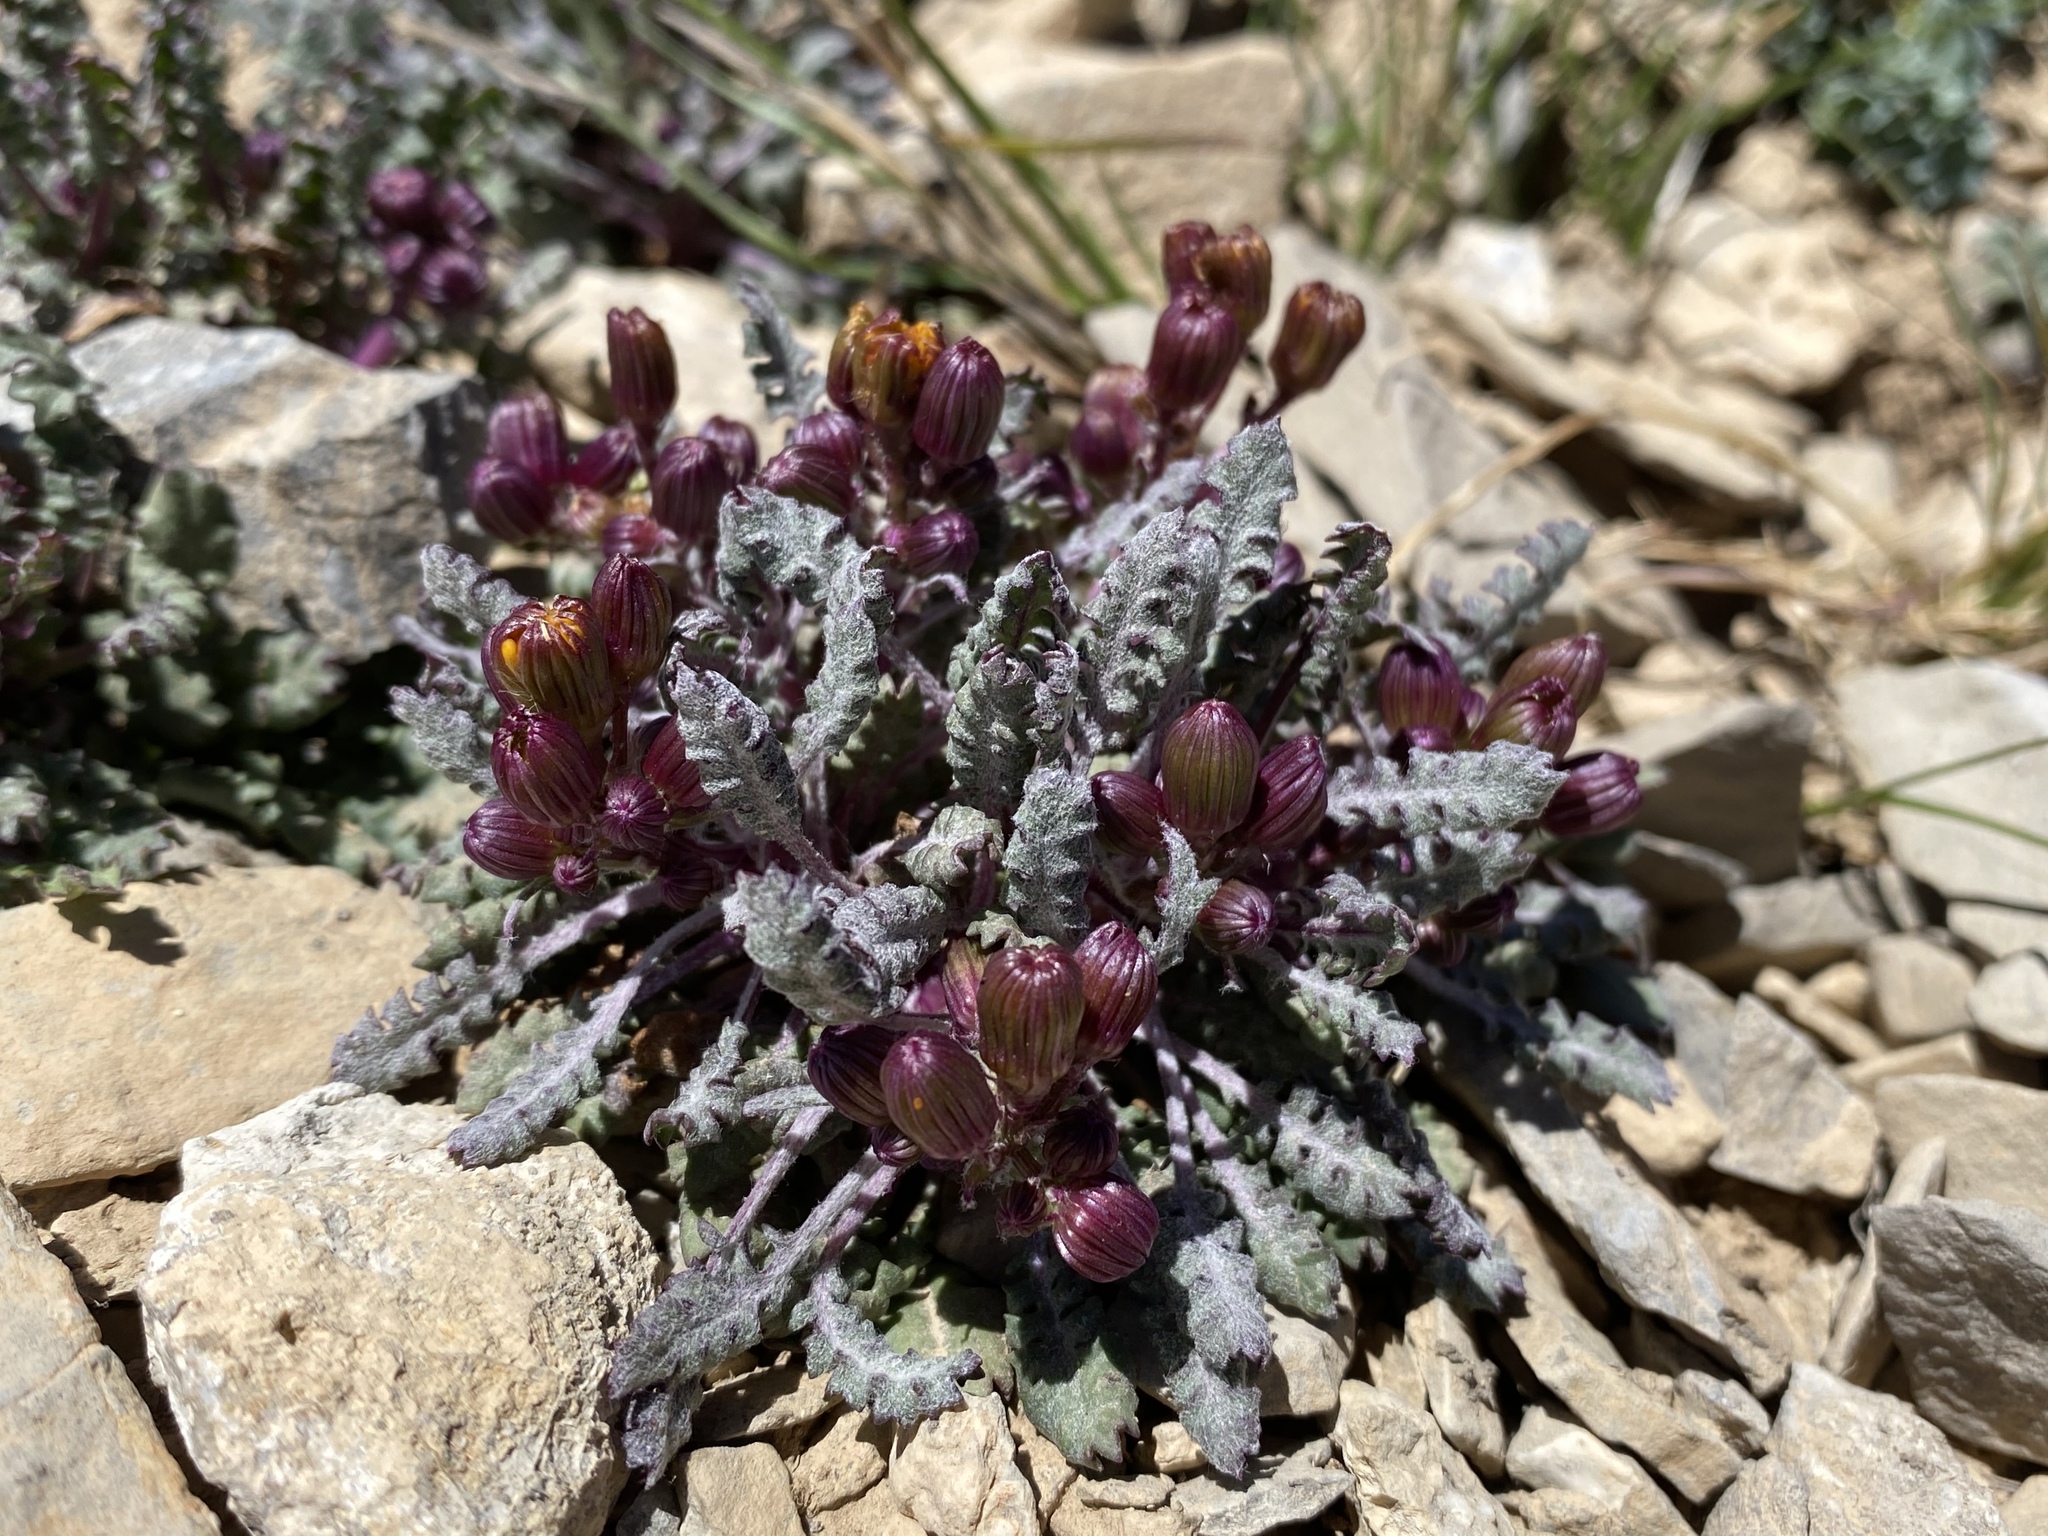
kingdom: Plantae
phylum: Tracheophyta
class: Magnoliopsida
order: Asterales
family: Asteraceae
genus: Packera
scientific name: Packera multilobata
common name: Lobe-leaf groundsel
